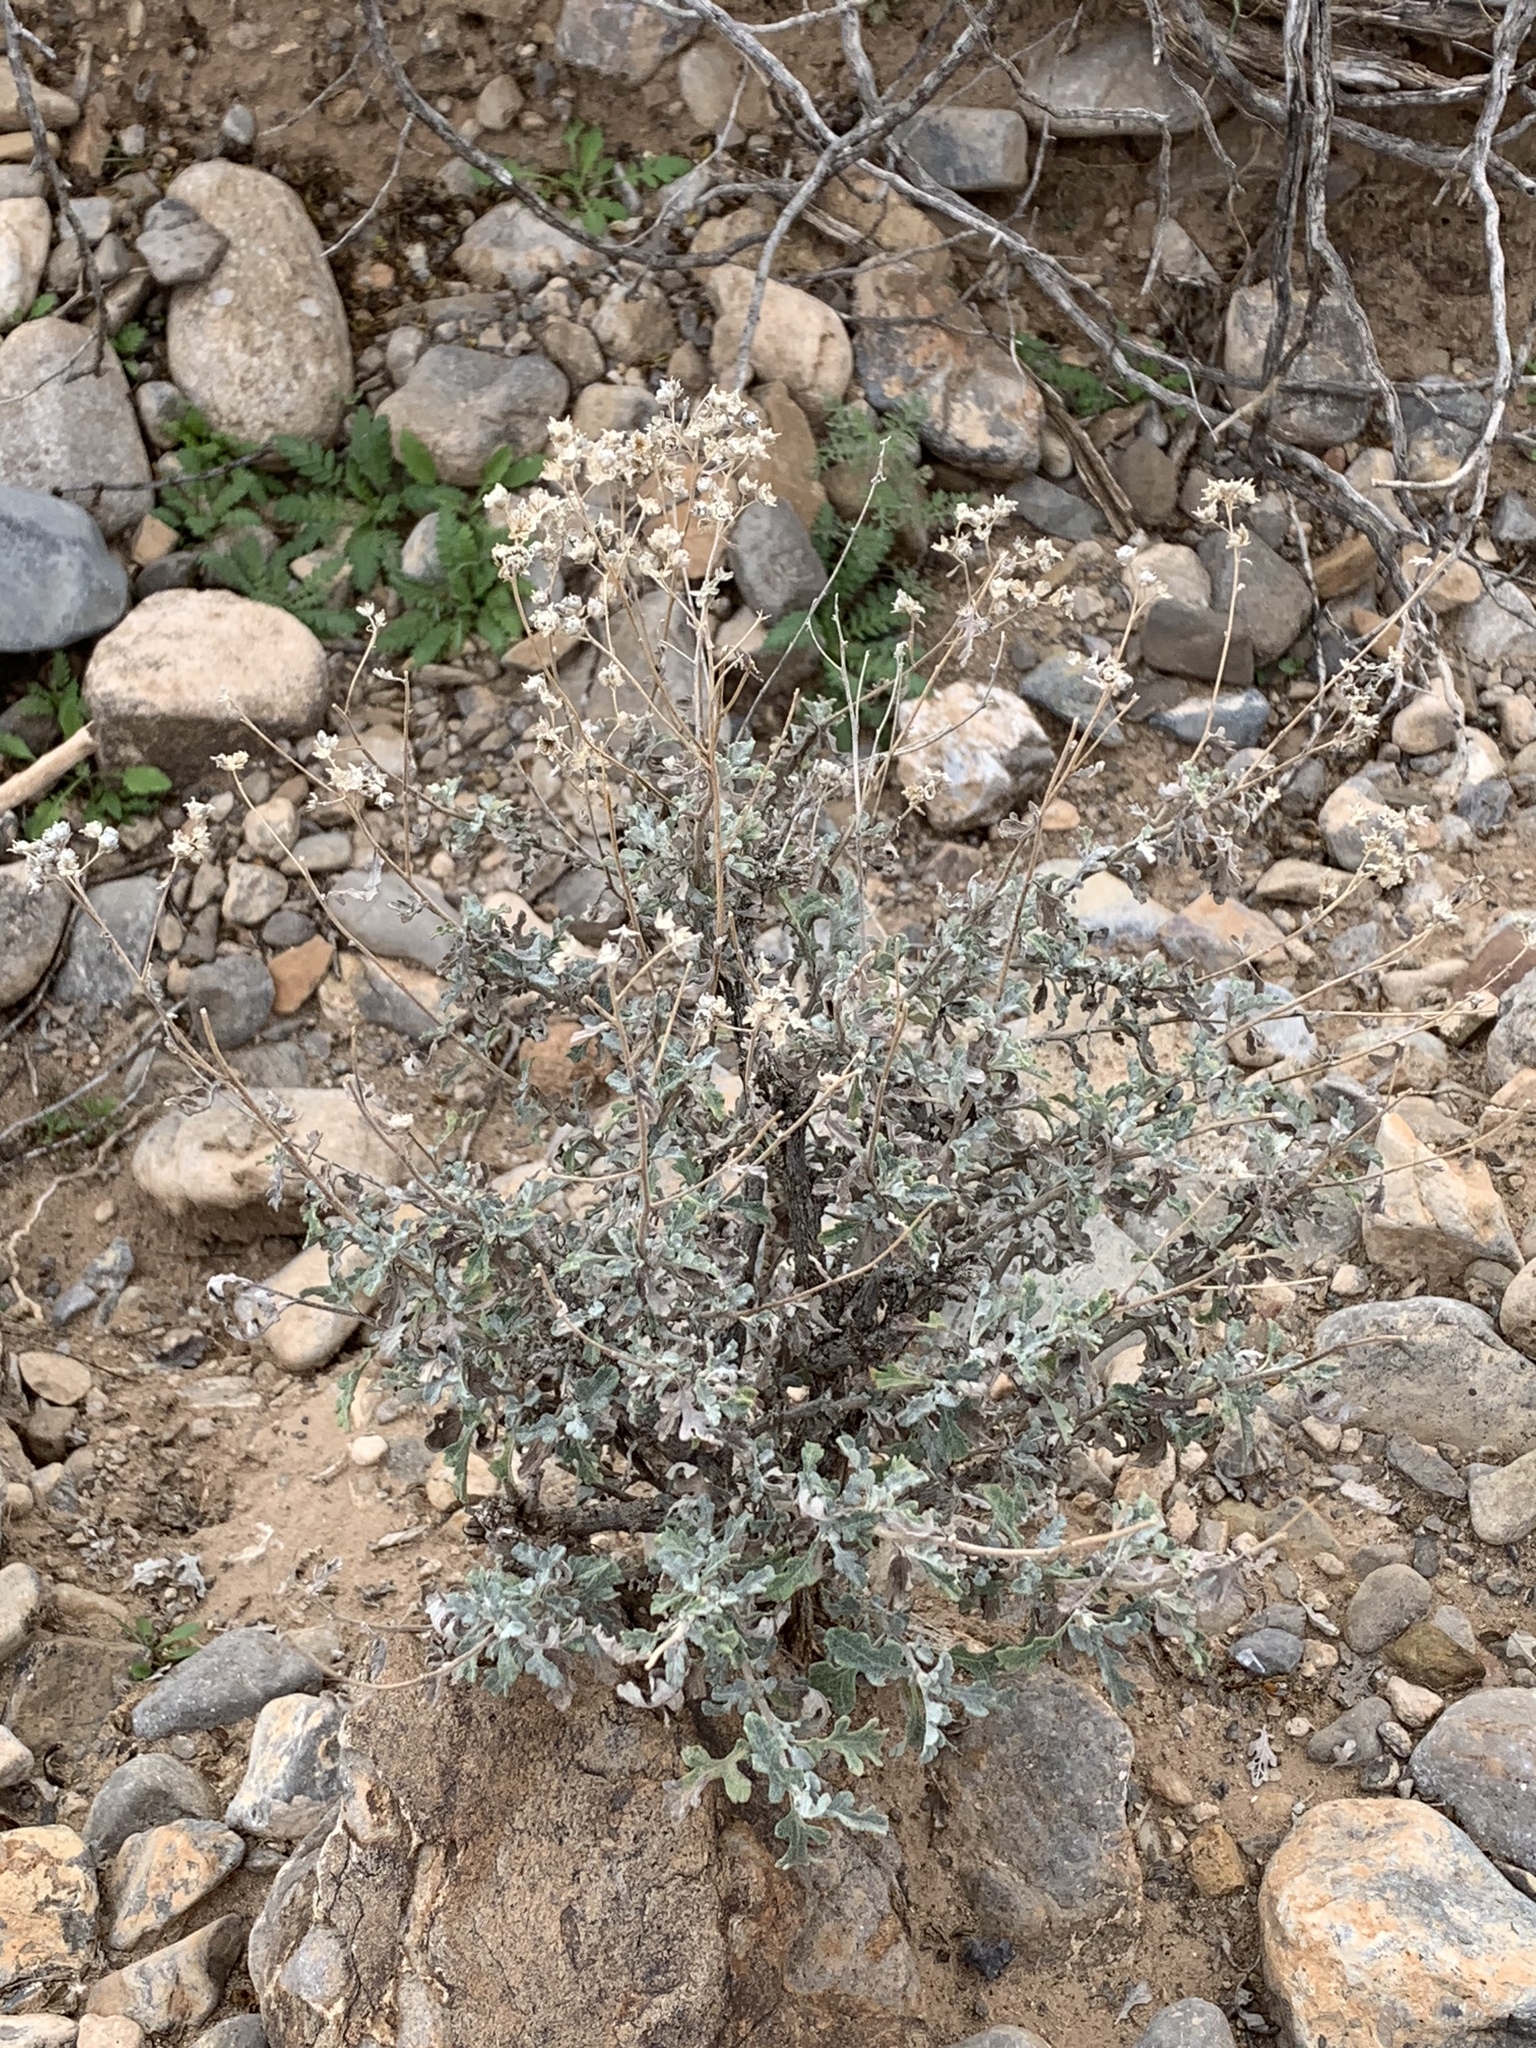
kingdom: Plantae
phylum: Tracheophyta
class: Magnoliopsida
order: Asterales
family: Asteraceae
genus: Parthenium
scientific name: Parthenium incanum
